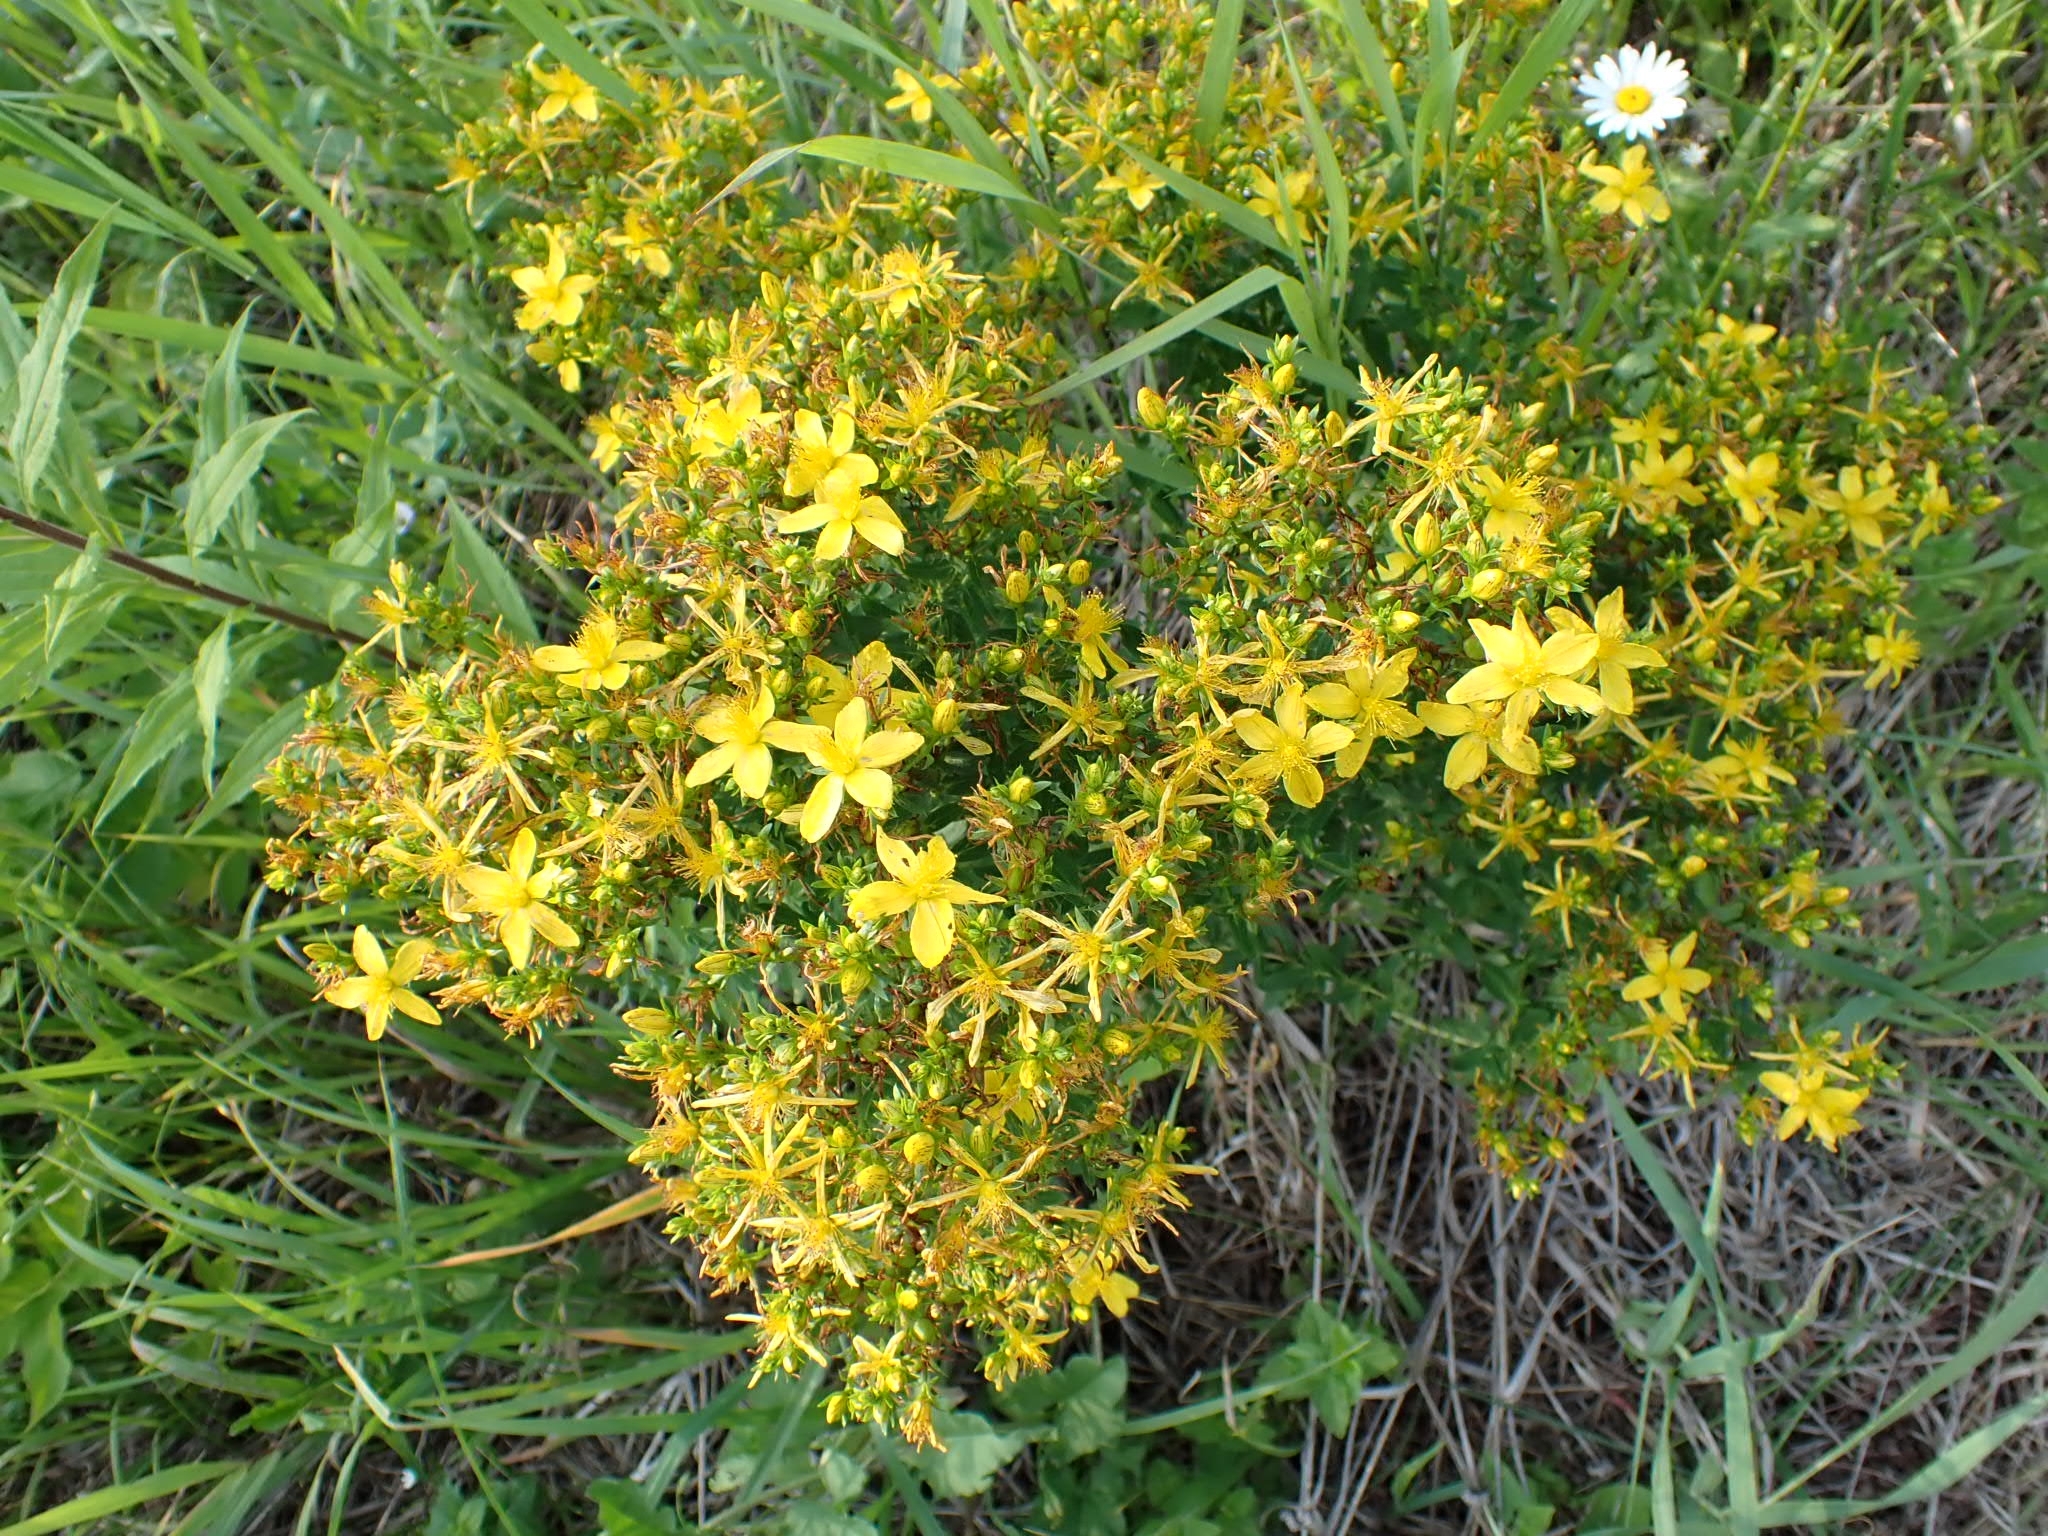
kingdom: Plantae
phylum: Tracheophyta
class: Magnoliopsida
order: Malpighiales
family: Hypericaceae
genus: Hypericum
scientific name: Hypericum perforatum
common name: Common st. johnswort
